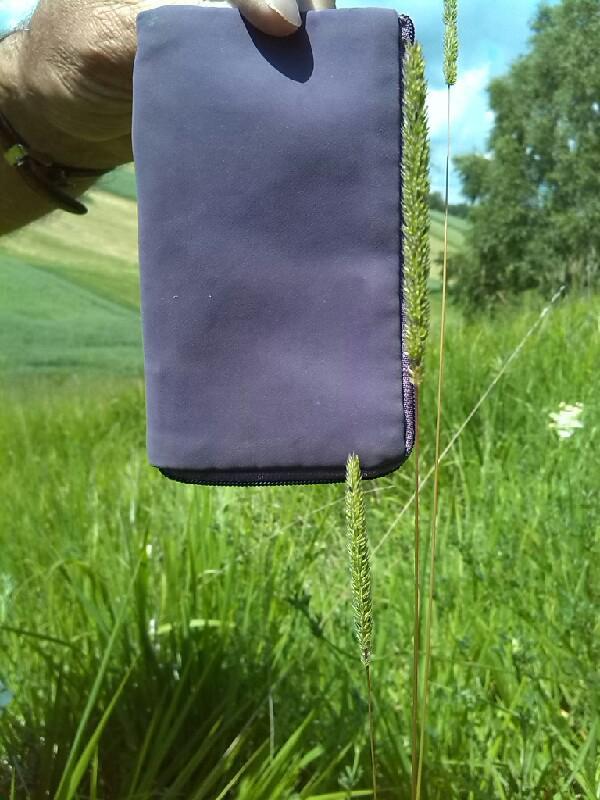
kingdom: Plantae
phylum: Tracheophyta
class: Liliopsida
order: Poales
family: Poaceae
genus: Phleum
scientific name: Phleum phleoides
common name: Purple-stem cat's-tail
